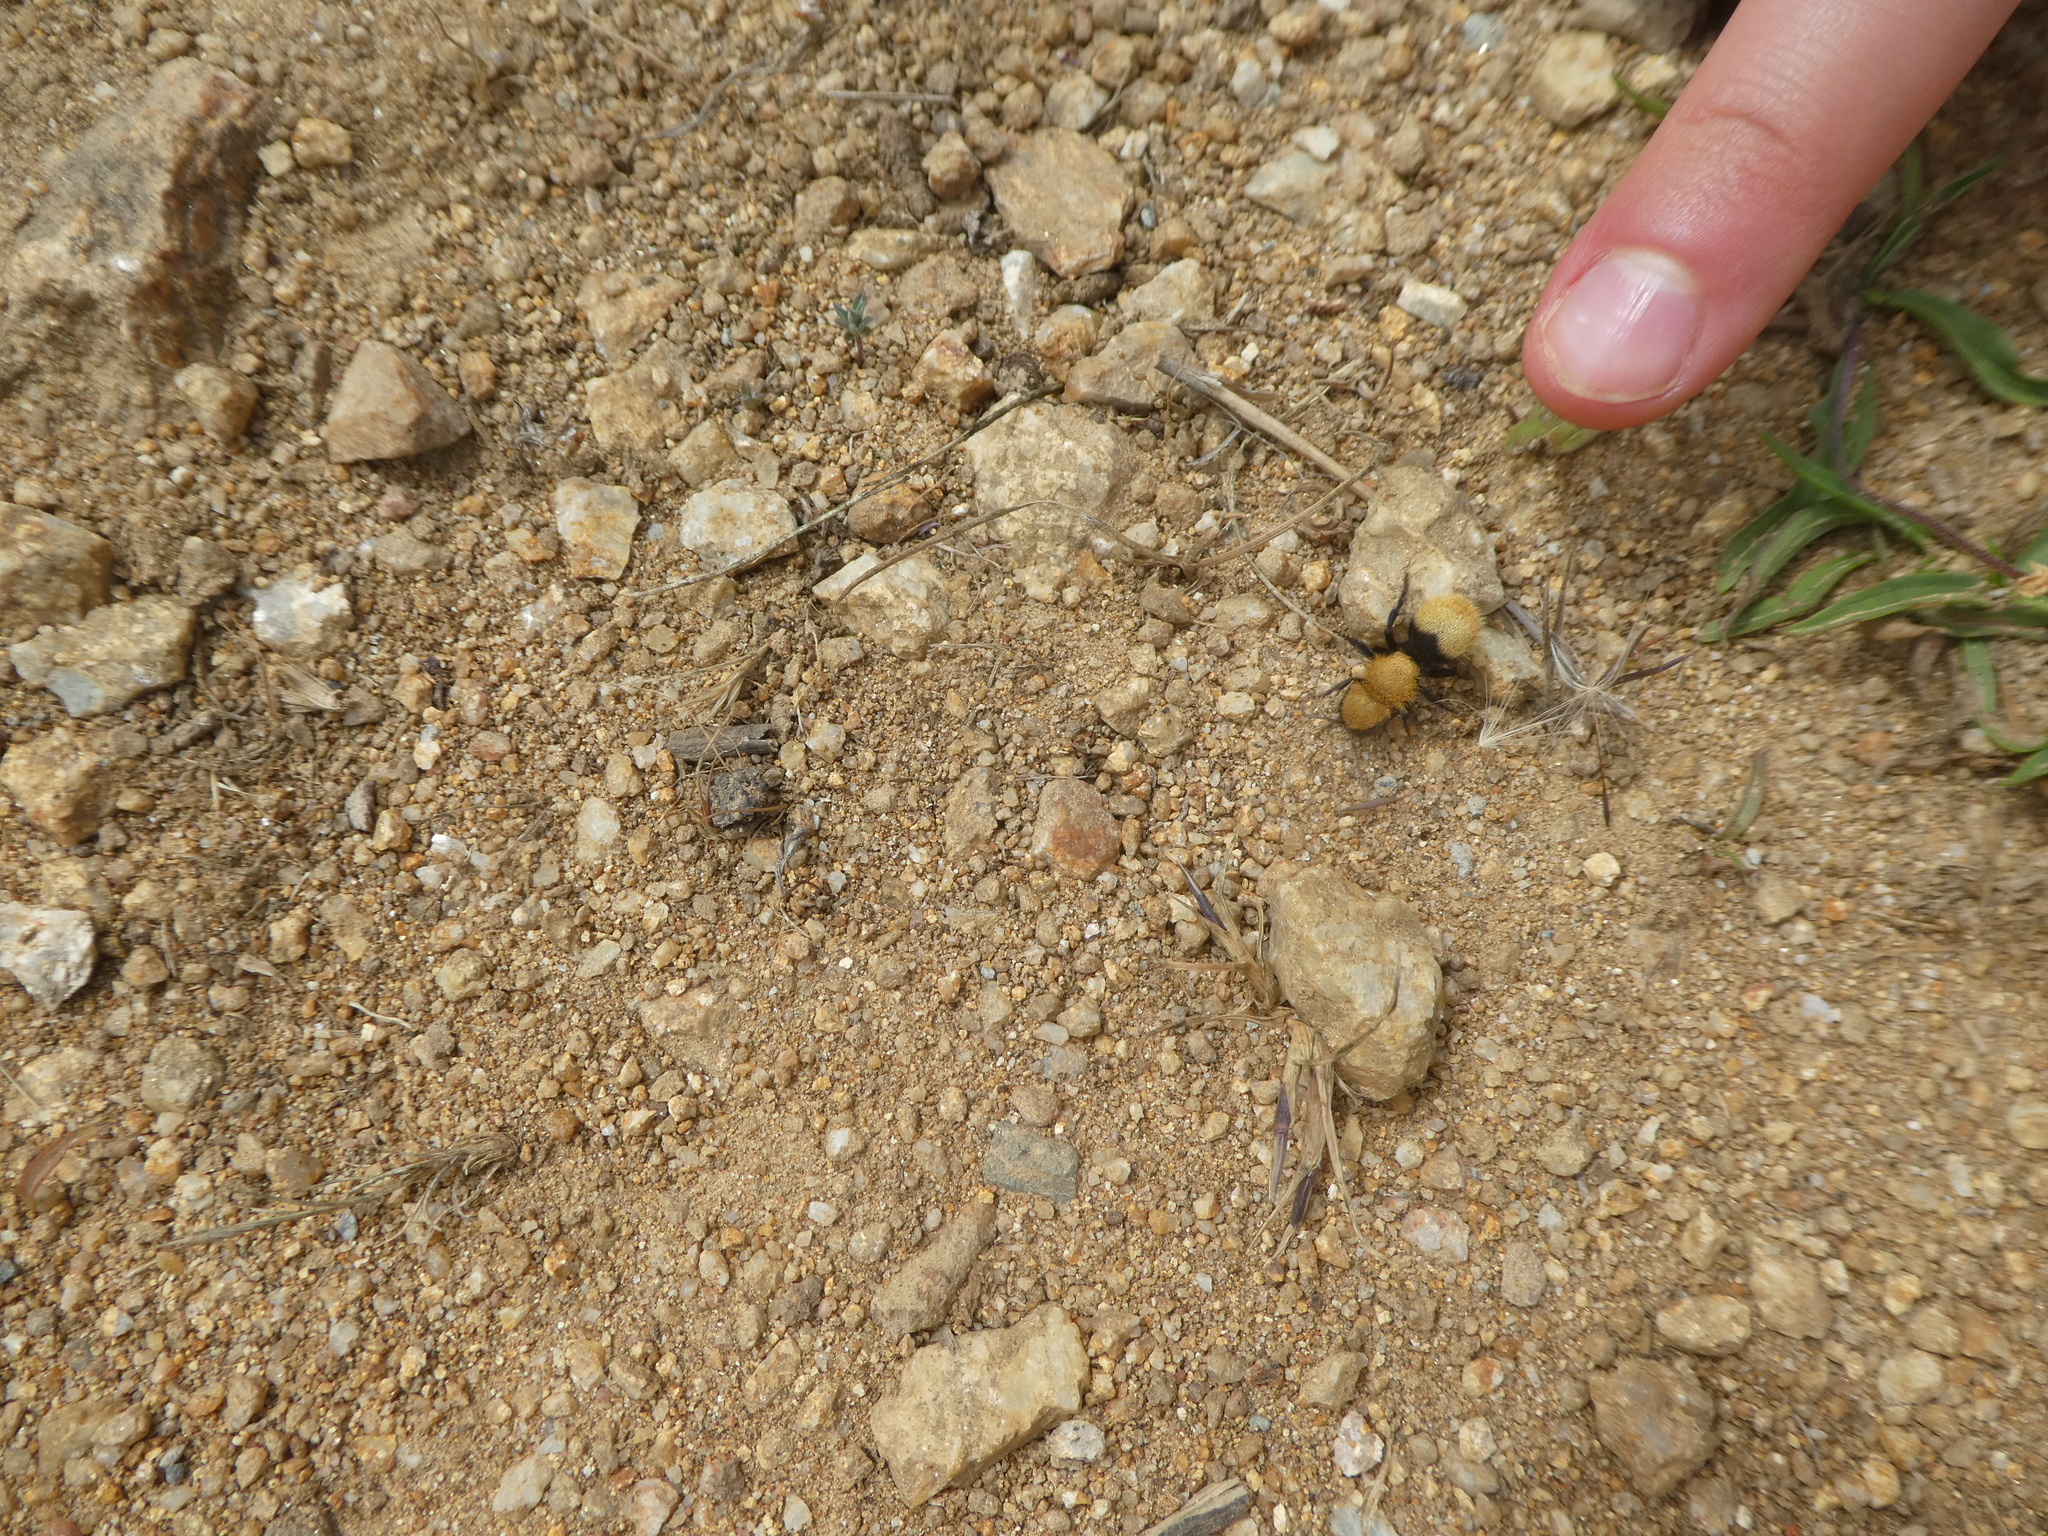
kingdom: Animalia
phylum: Arthropoda
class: Insecta
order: Hymenoptera
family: Mutillidae
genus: Dasymutilla
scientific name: Dasymutilla
